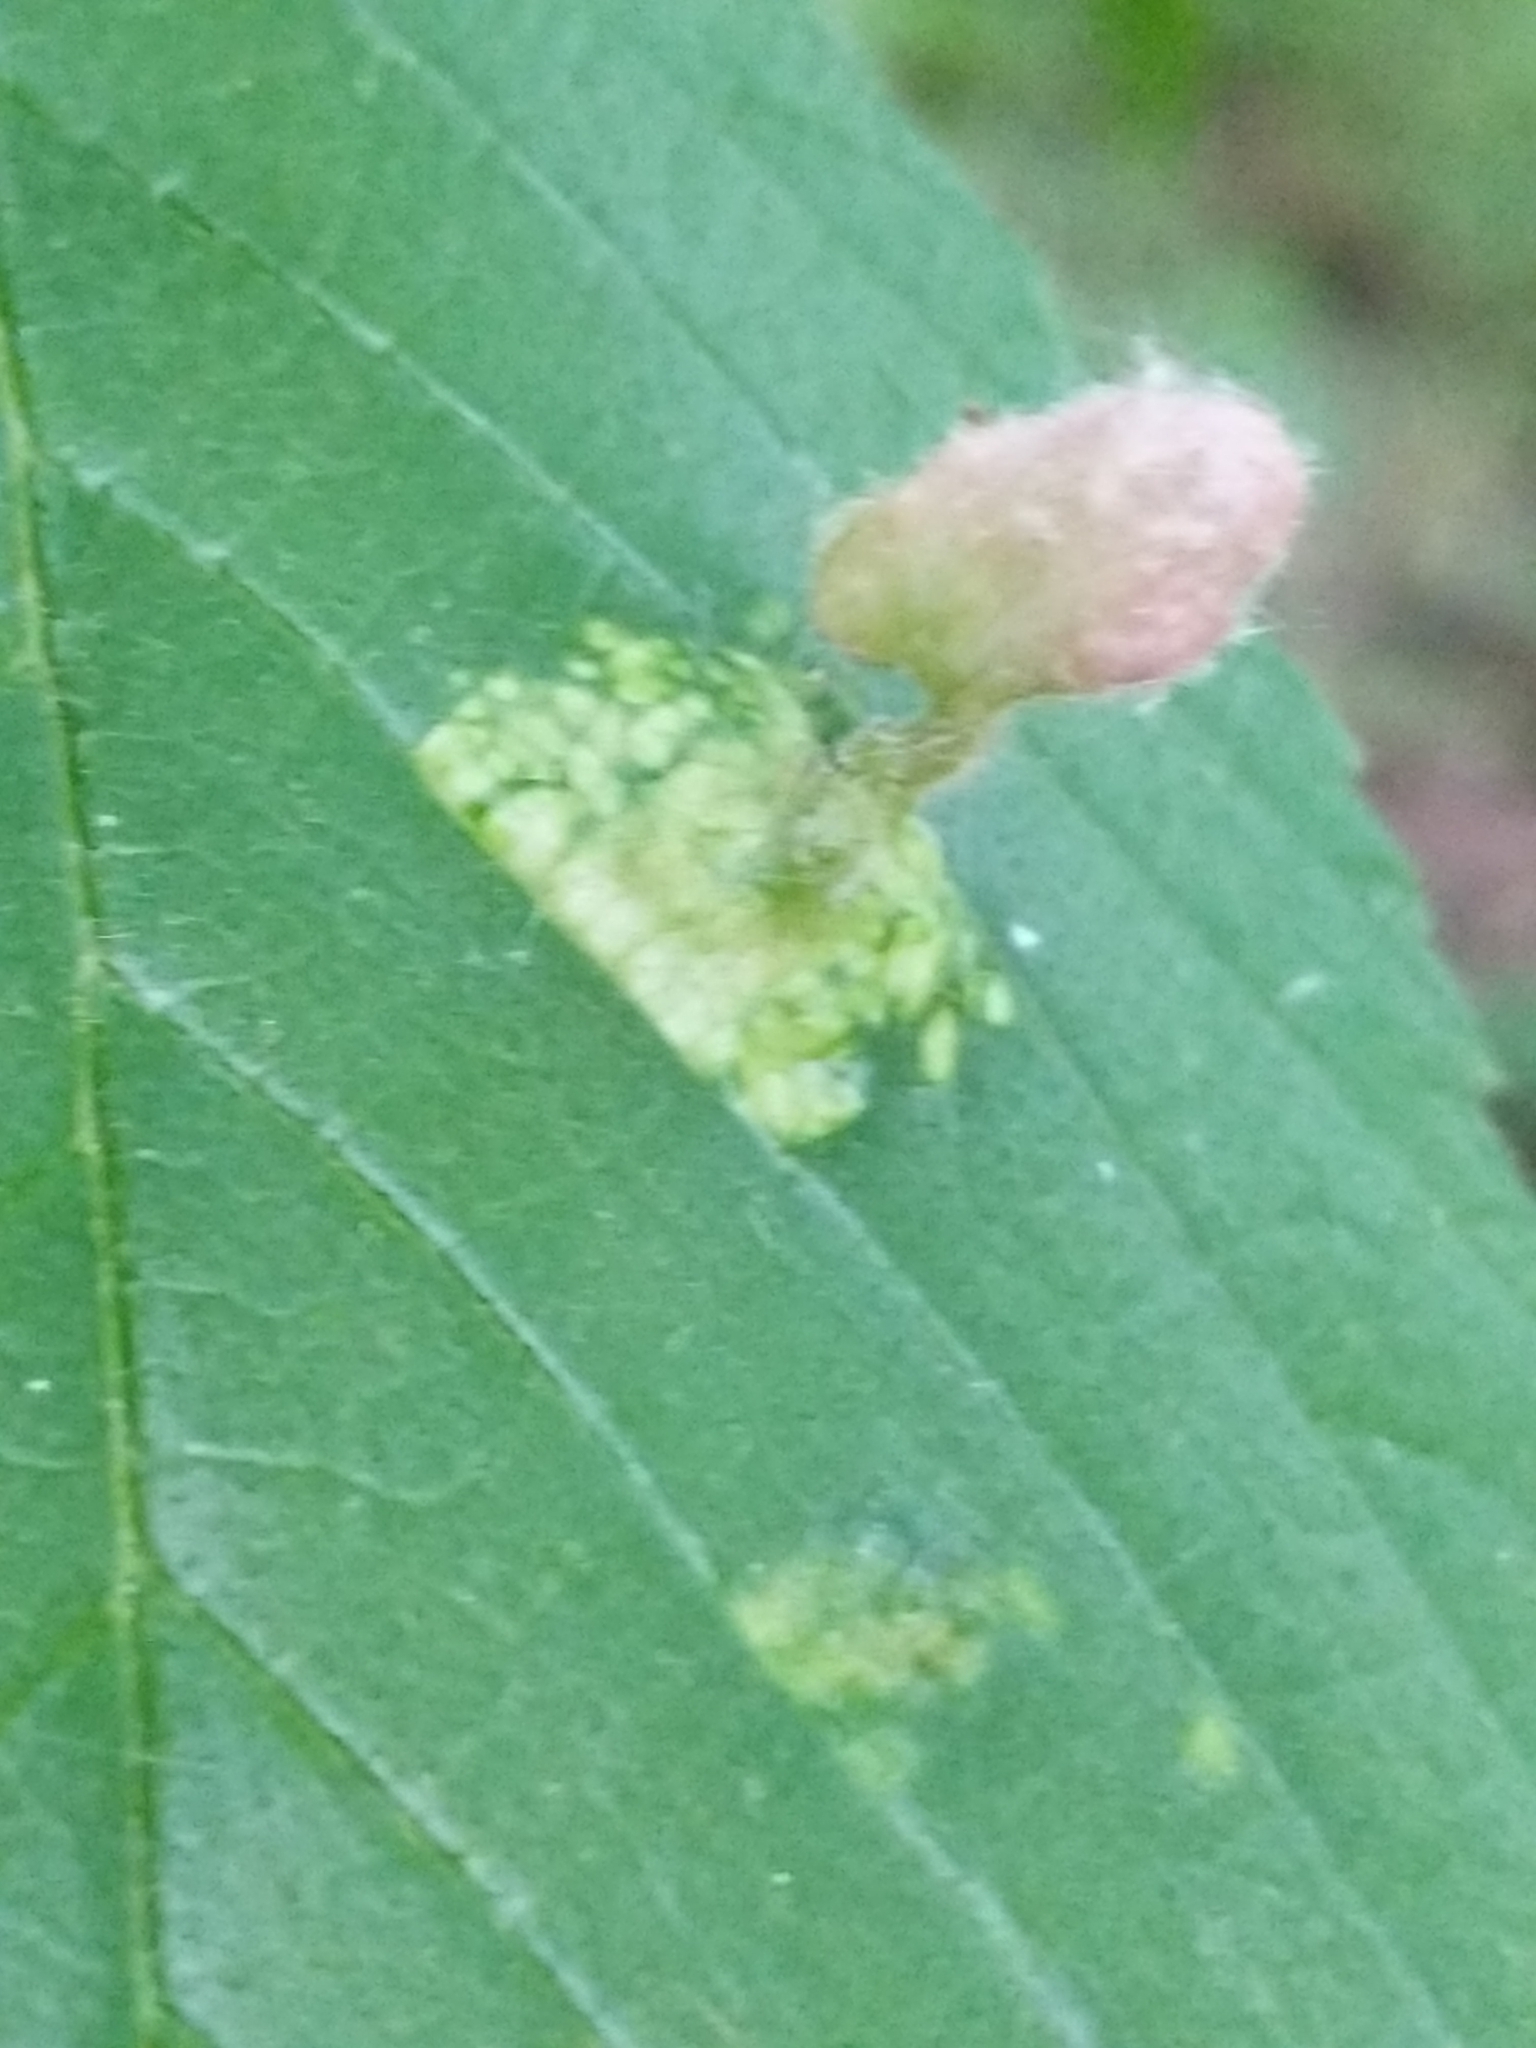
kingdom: Animalia
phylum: Arthropoda
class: Insecta
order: Hemiptera
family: Aphididae
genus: Tetraneura
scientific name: Tetraneura nigriabdominalis
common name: Aphid
